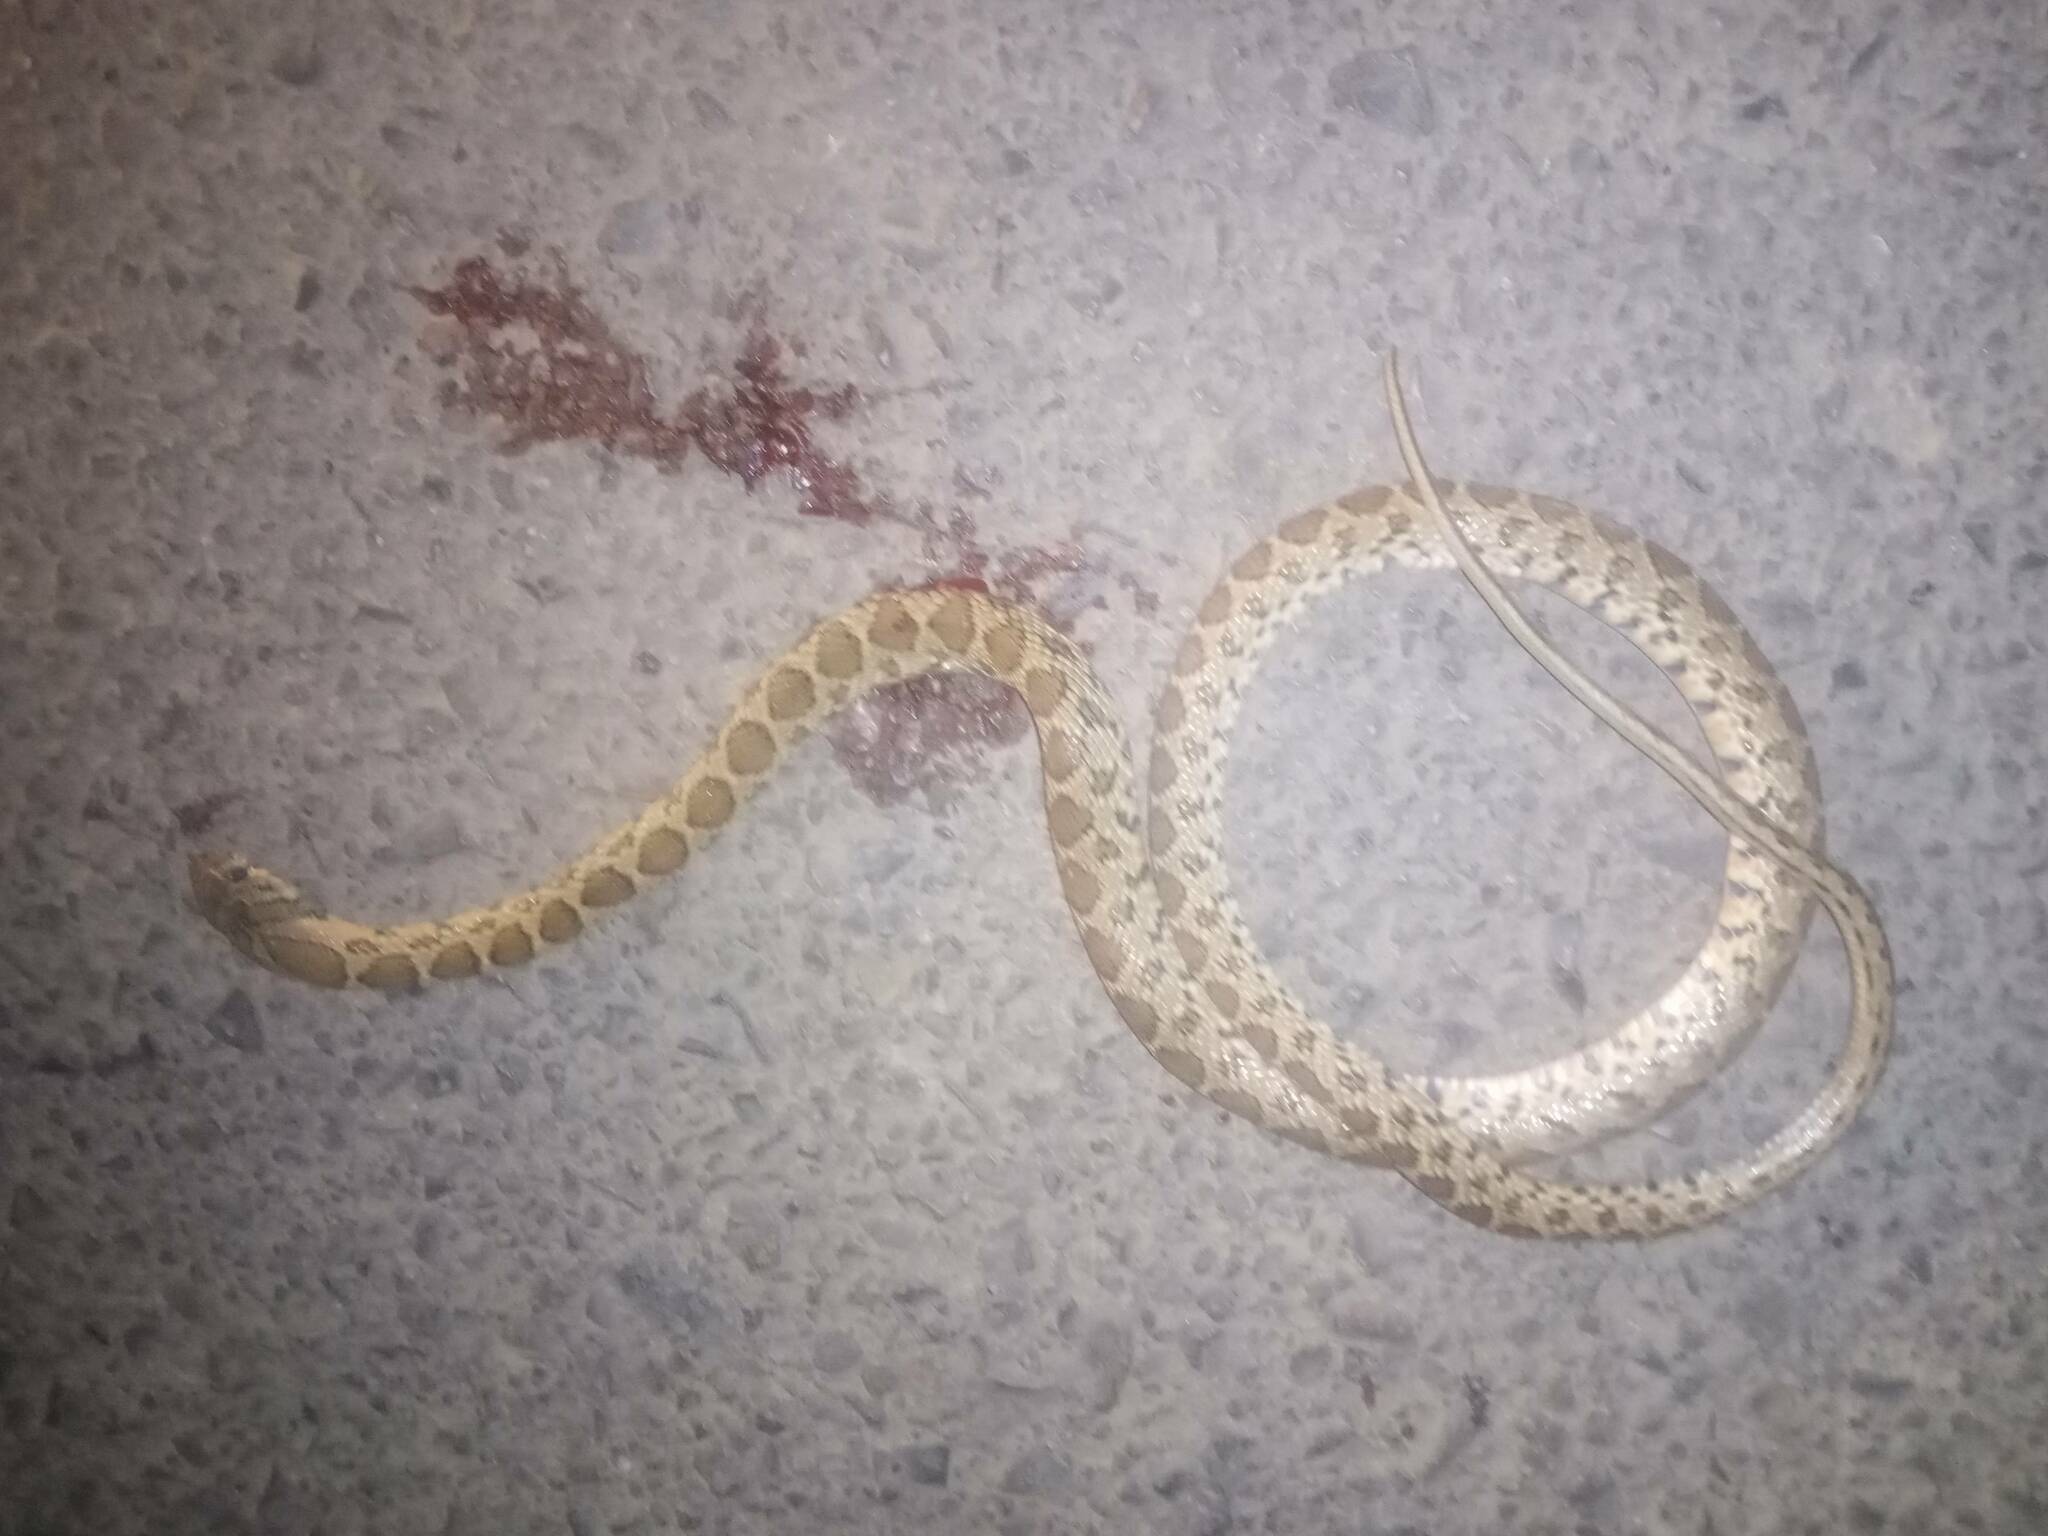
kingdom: Animalia
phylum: Chordata
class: Squamata
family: Colubridae
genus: Hemorrhois
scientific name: Hemorrhois hippocrepis
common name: Horseshoe whip snake
